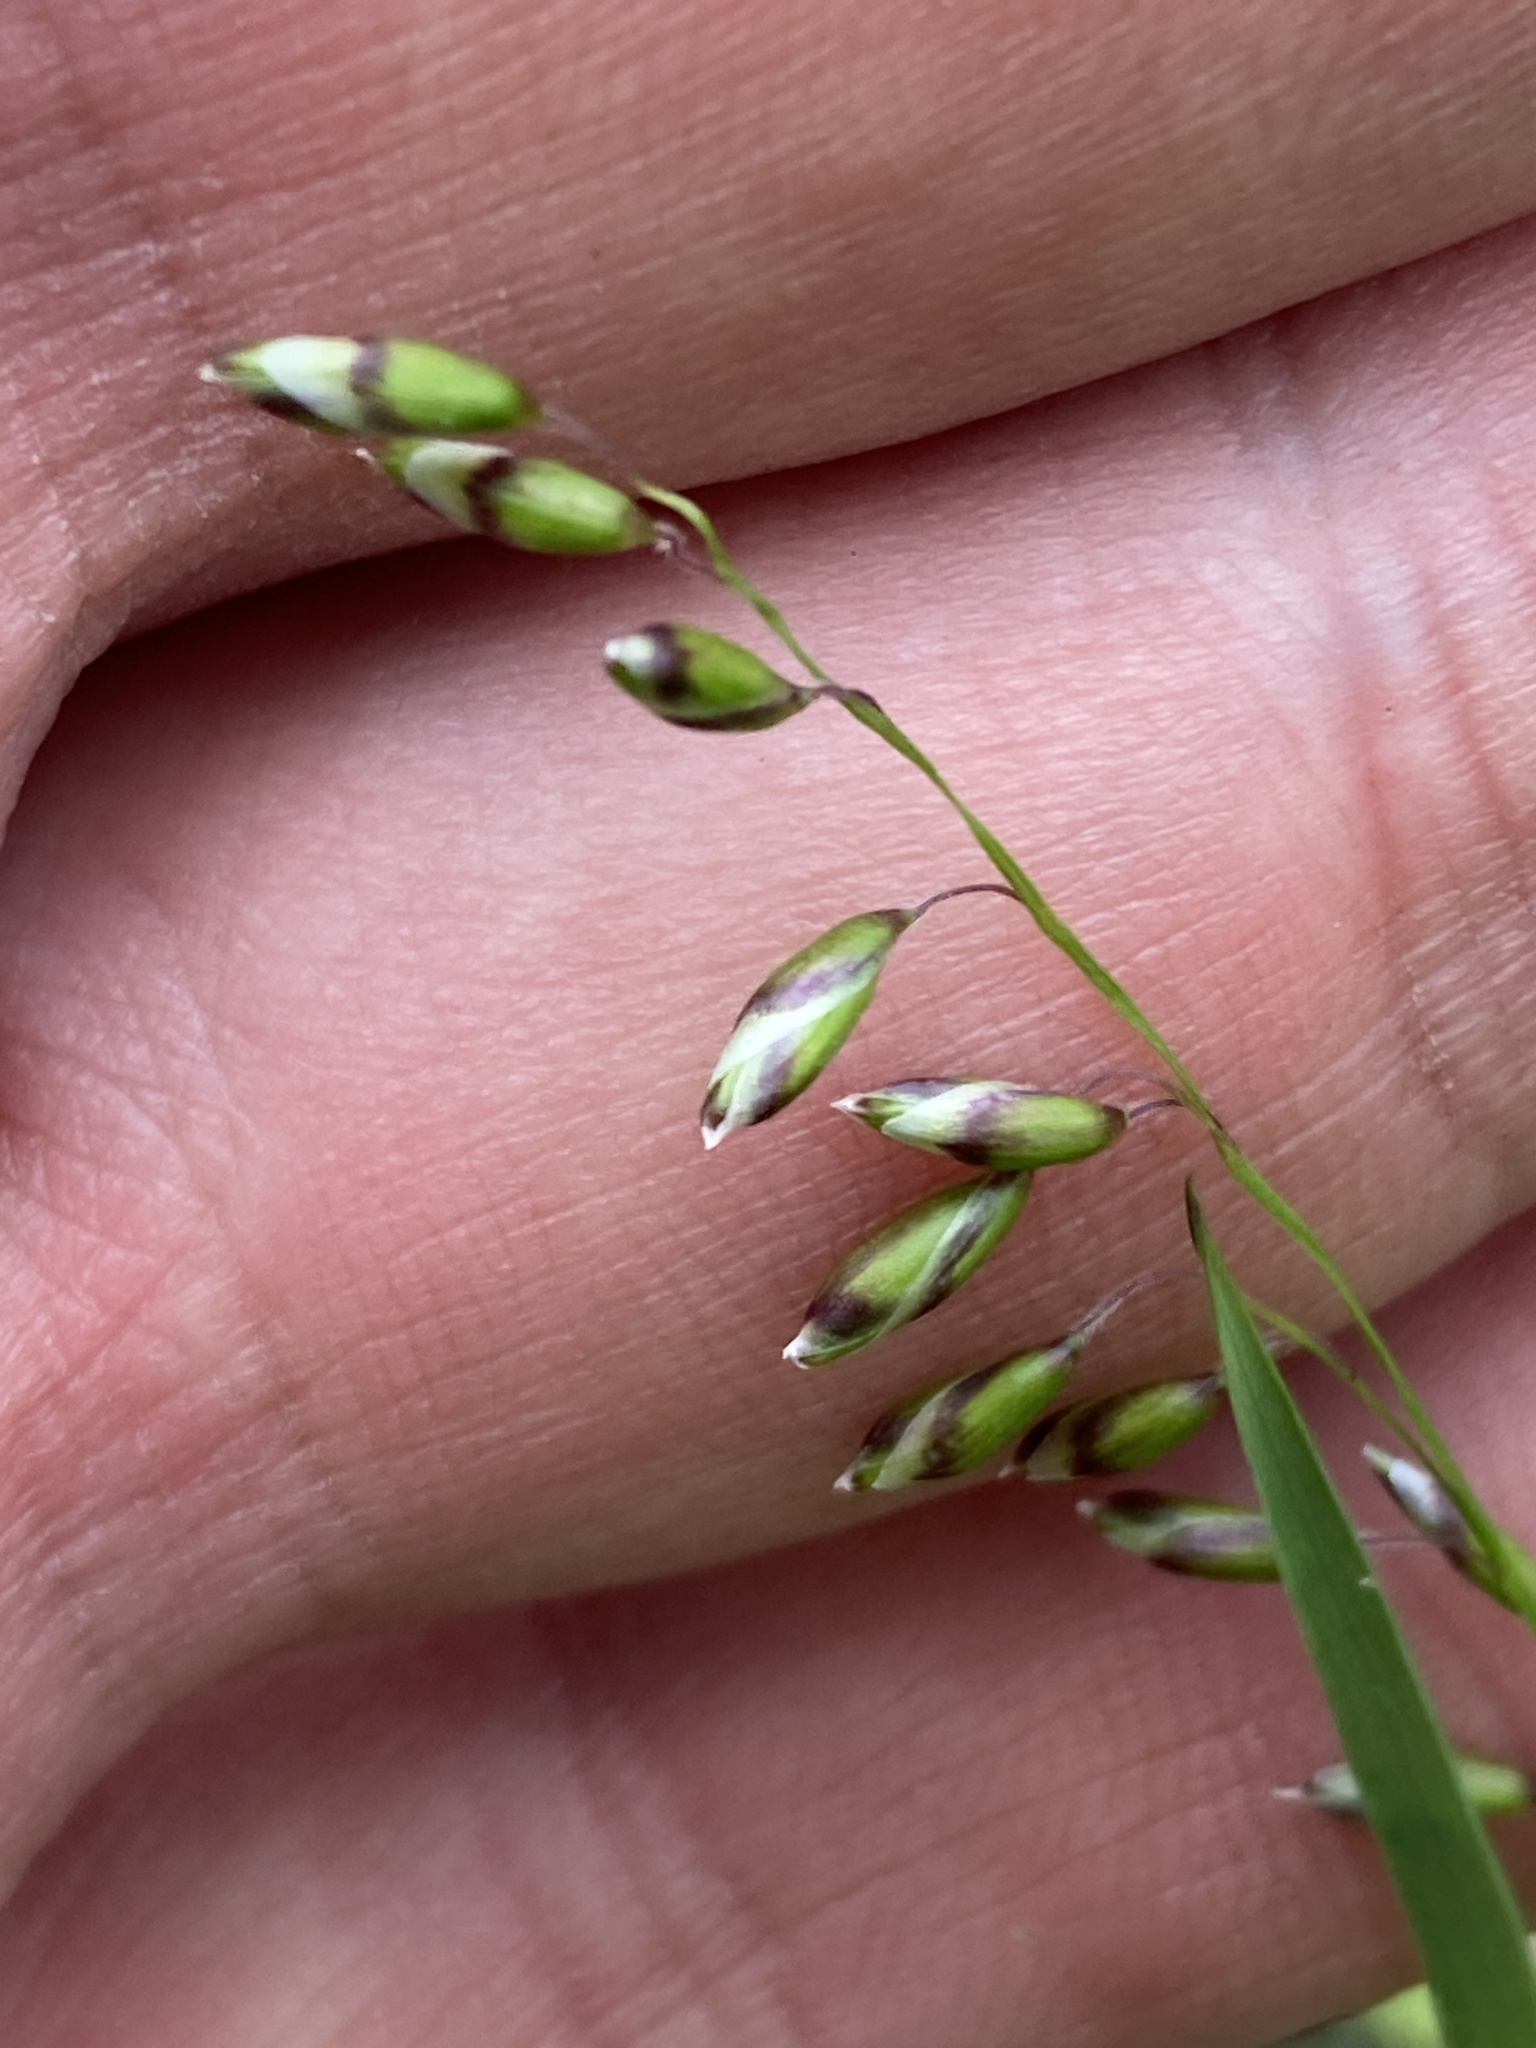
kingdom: Plantae
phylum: Tracheophyta
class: Liliopsida
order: Poales
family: Poaceae
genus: Melica
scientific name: Melica picta
